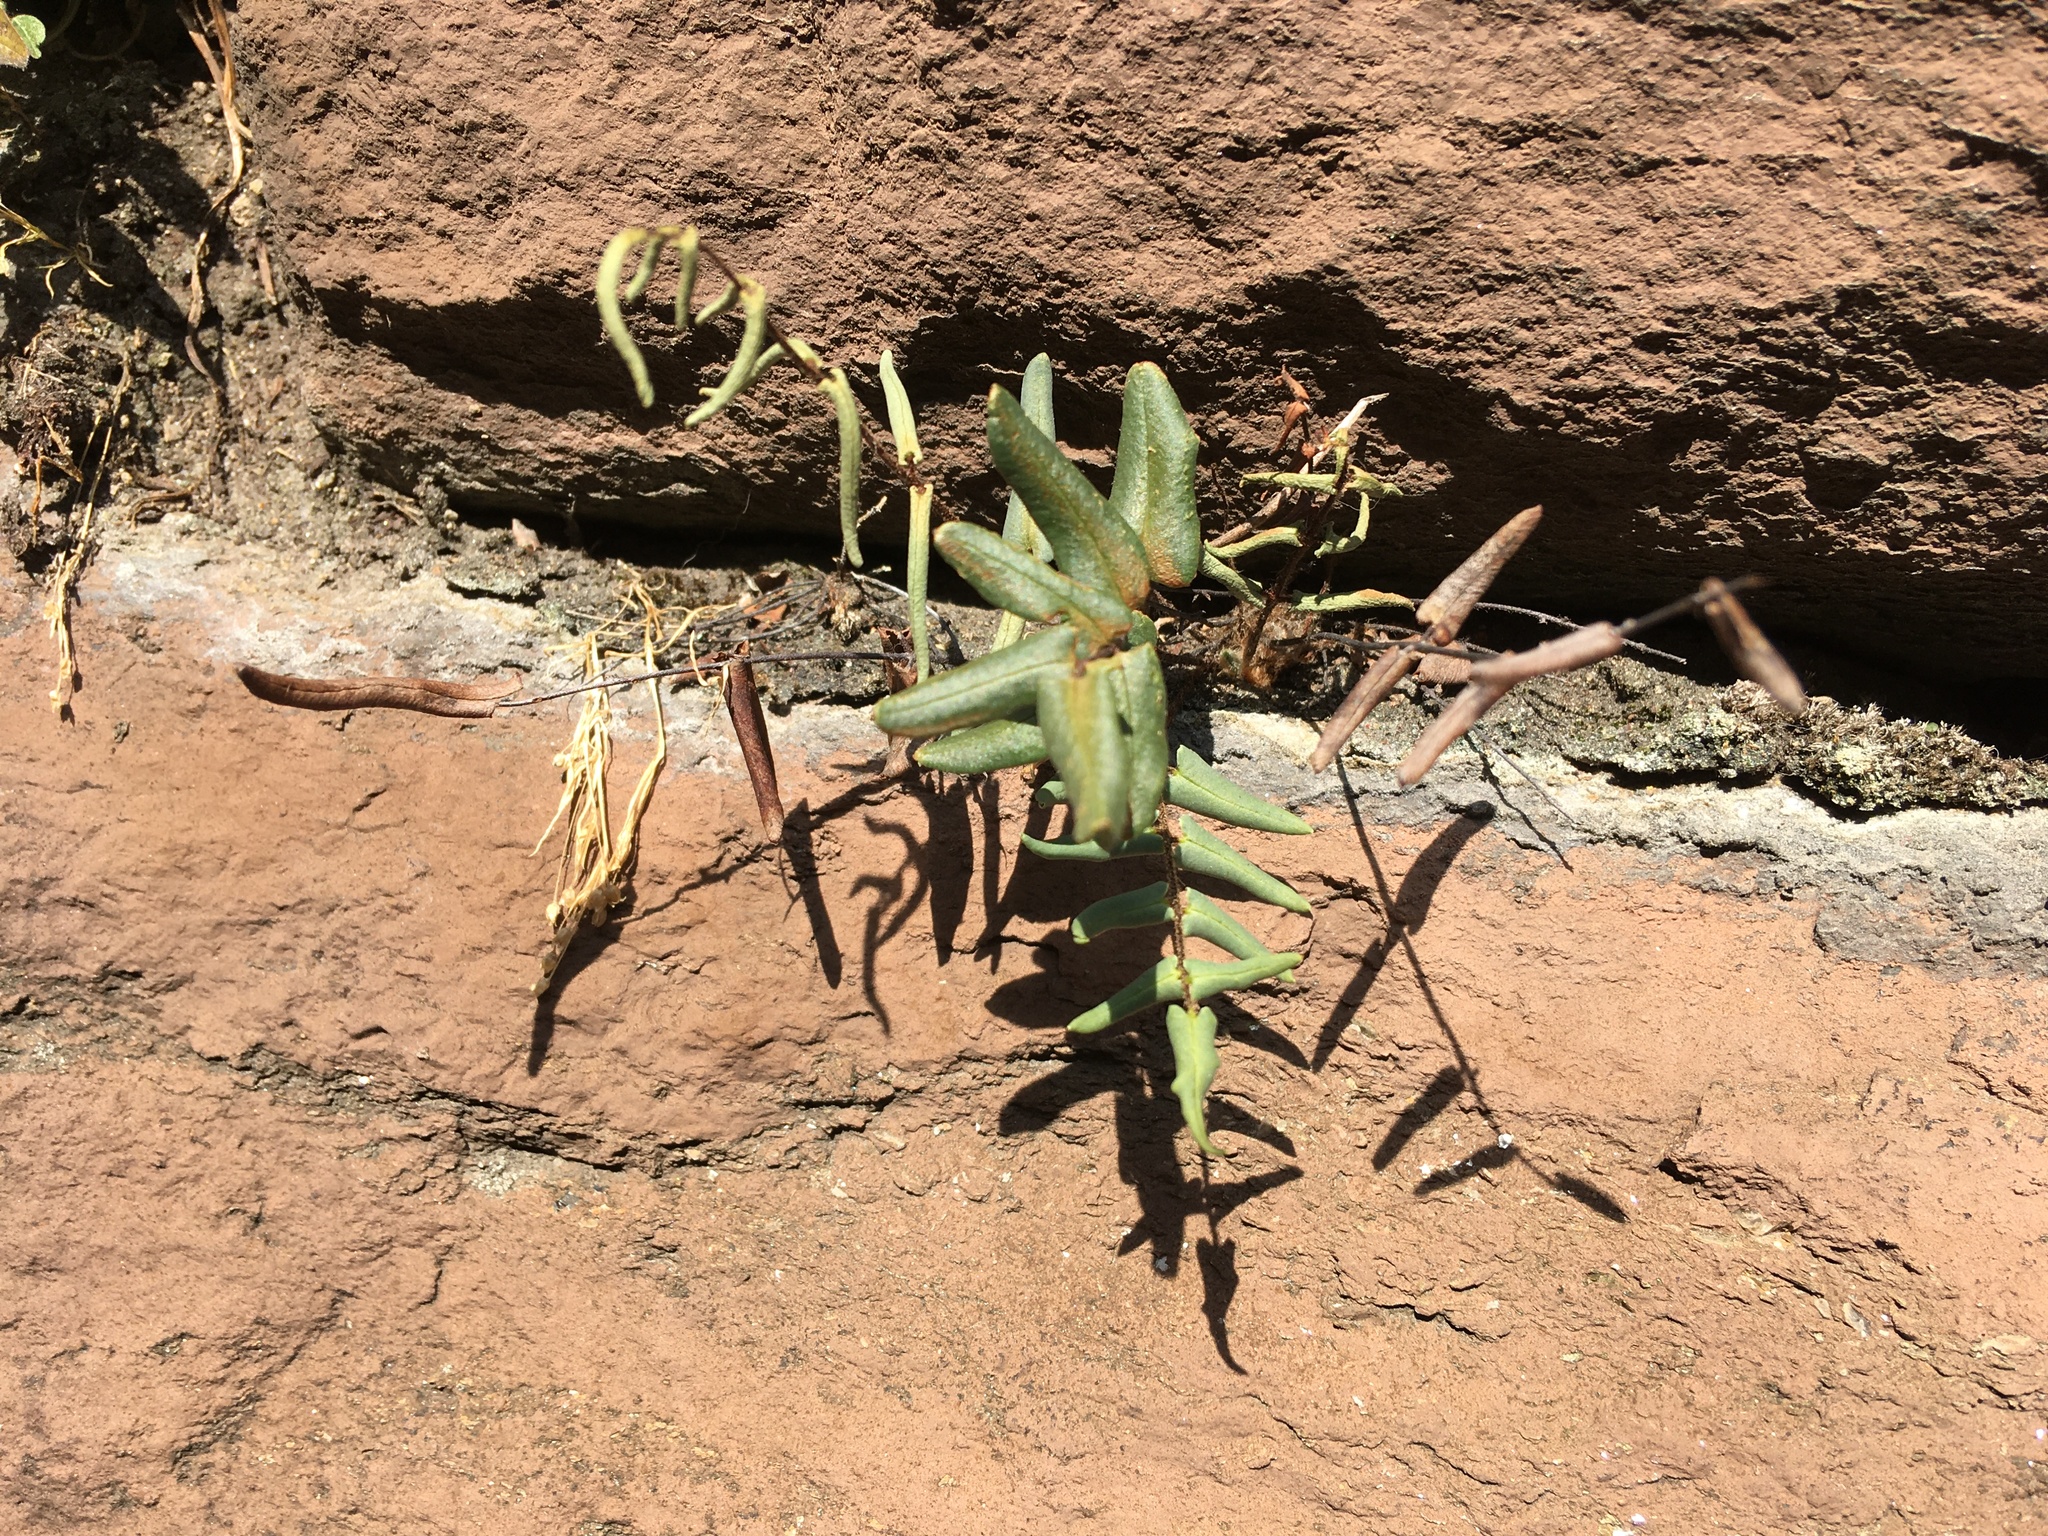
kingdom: Plantae
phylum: Tracheophyta
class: Polypodiopsida
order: Polypodiales
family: Pteridaceae
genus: Pellaea
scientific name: Pellaea atropurpurea
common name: Hairy cliffbrake
